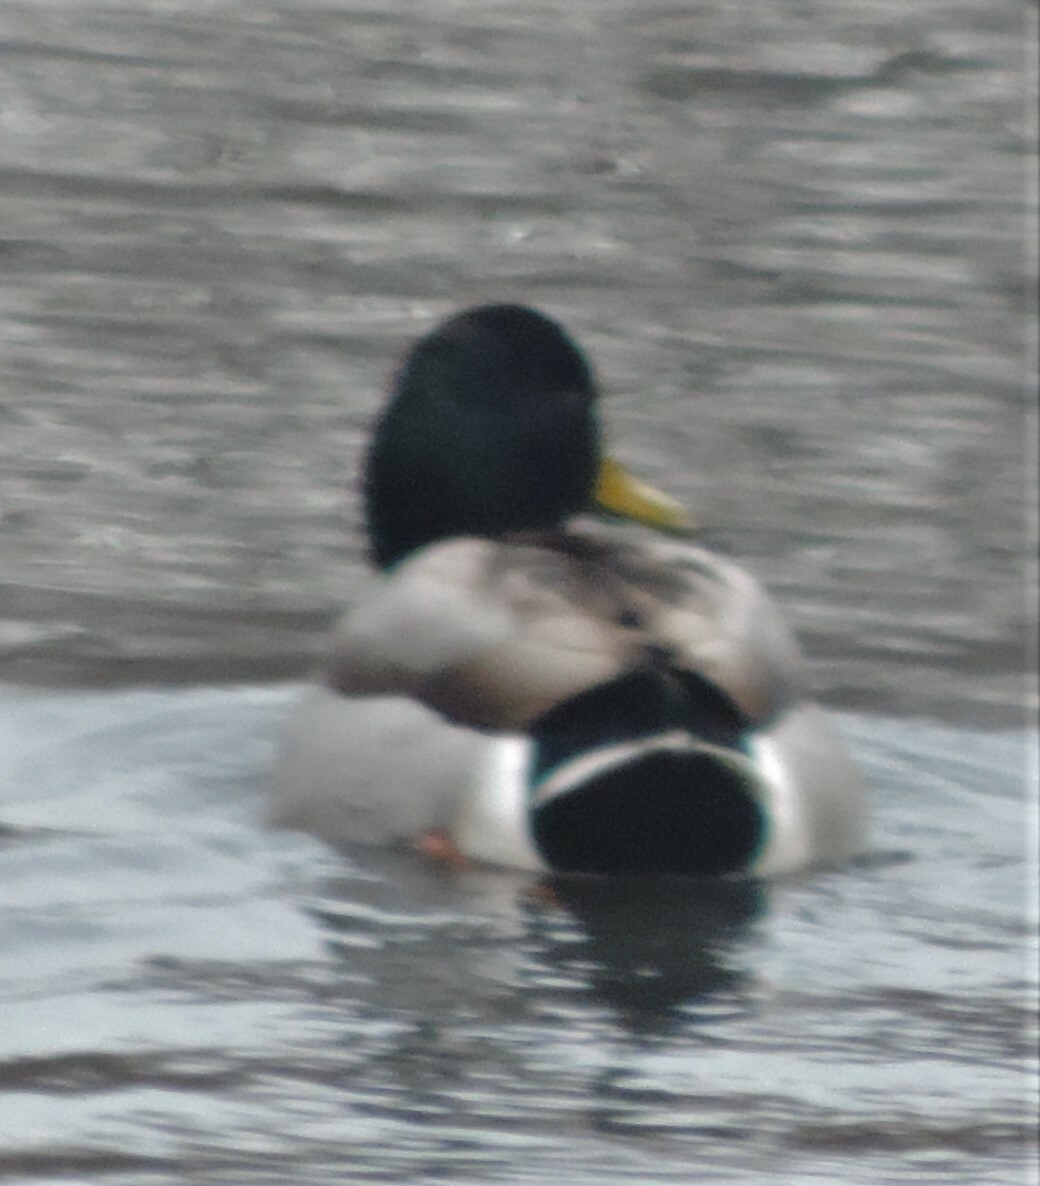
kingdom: Animalia
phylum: Chordata
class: Aves
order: Anseriformes
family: Anatidae
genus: Anas
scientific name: Anas platyrhynchos
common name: Mallard
